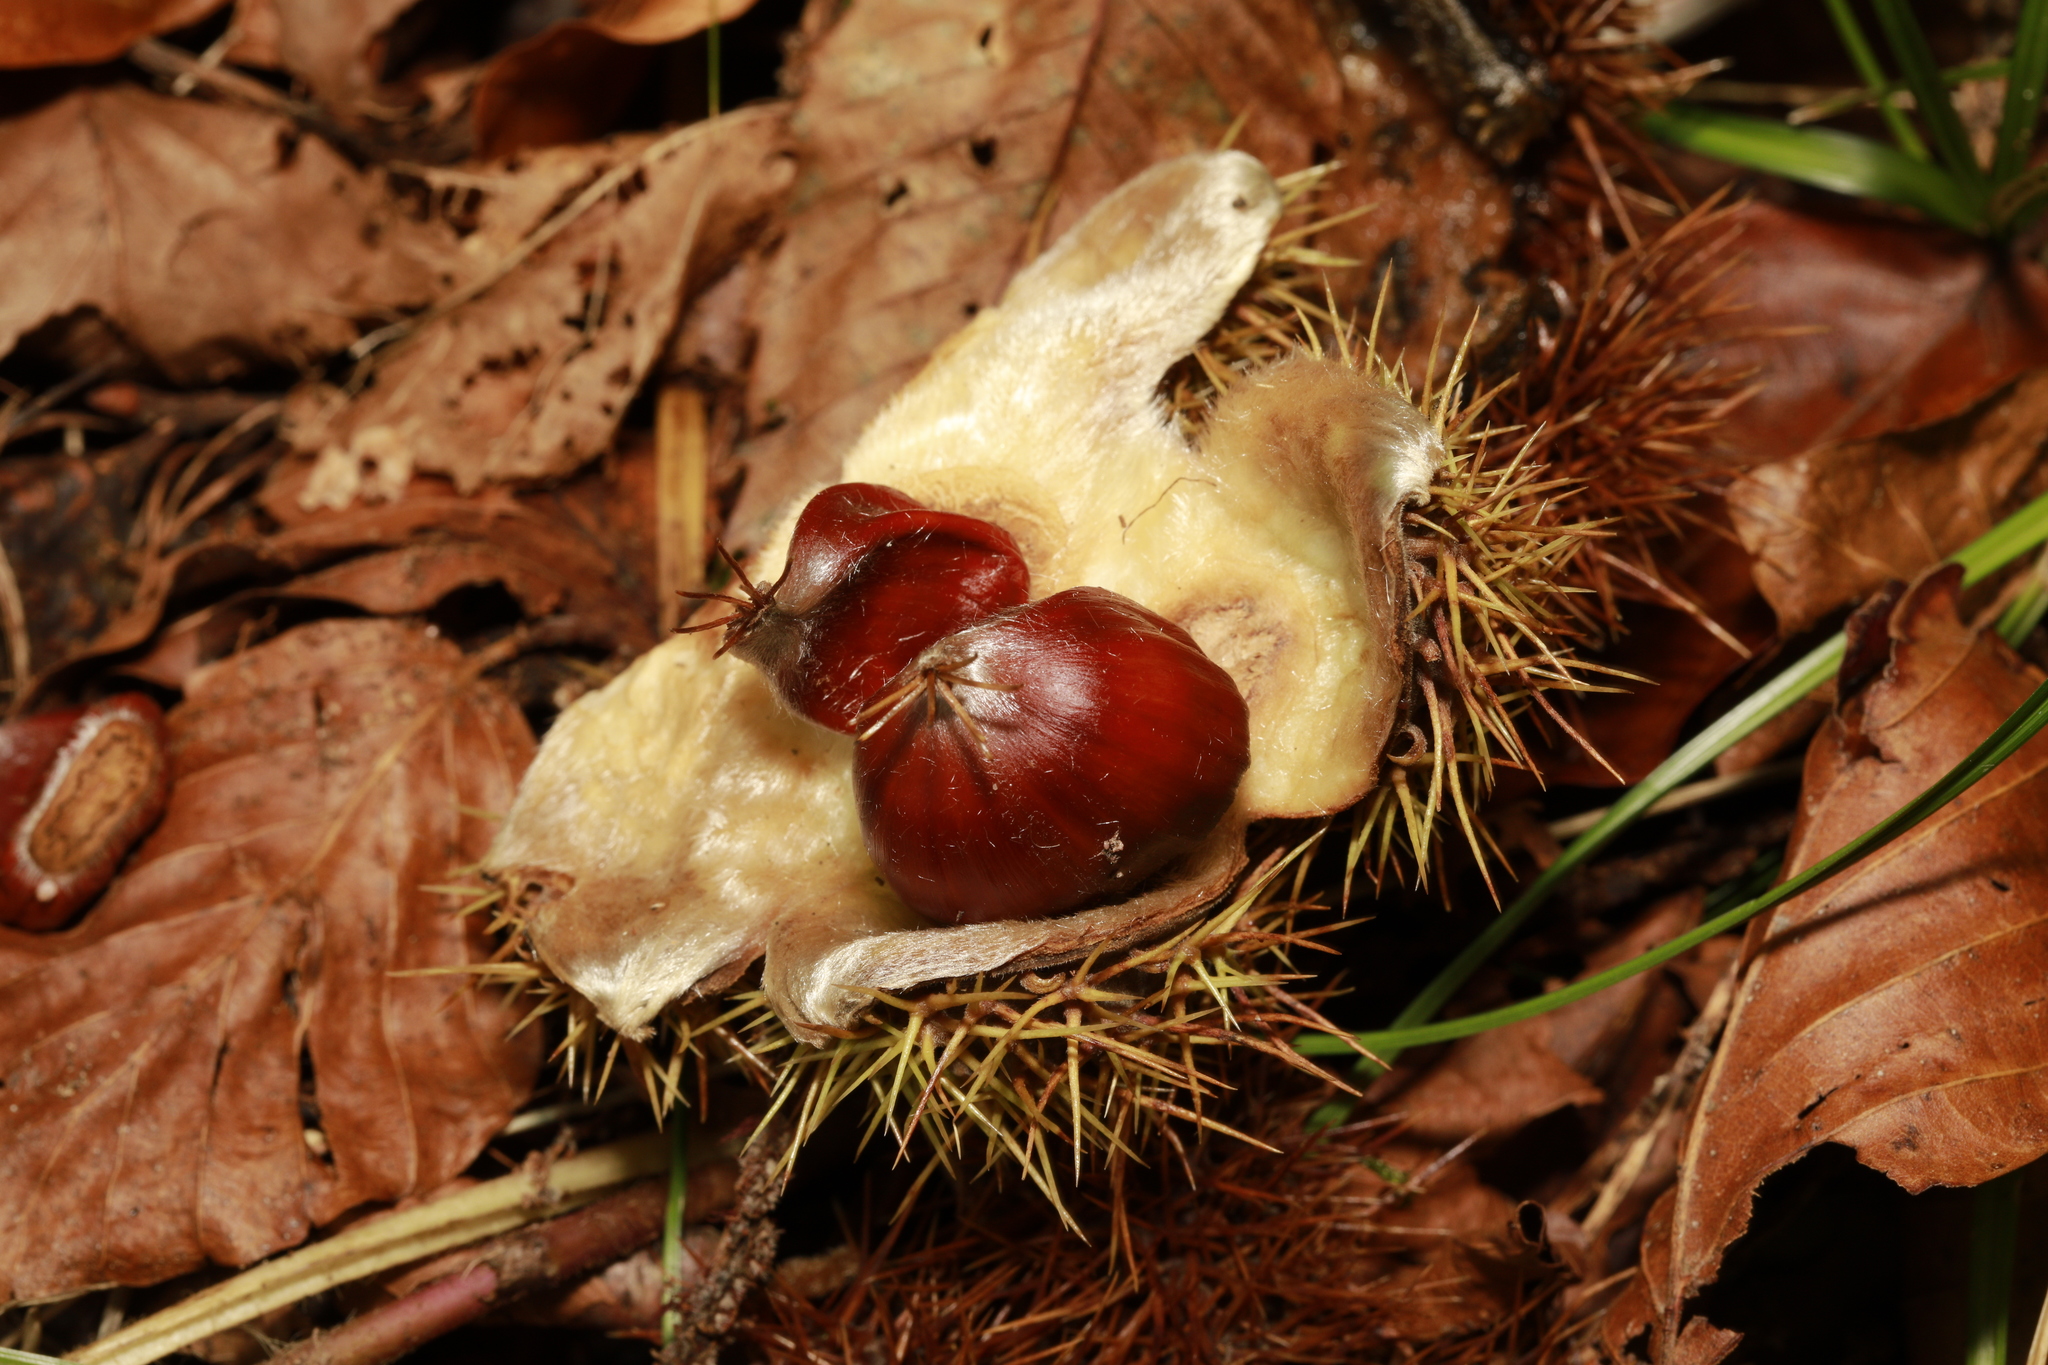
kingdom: Plantae
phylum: Tracheophyta
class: Magnoliopsida
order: Fagales
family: Fagaceae
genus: Castanea
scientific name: Castanea sativa
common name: Sweet chestnut
